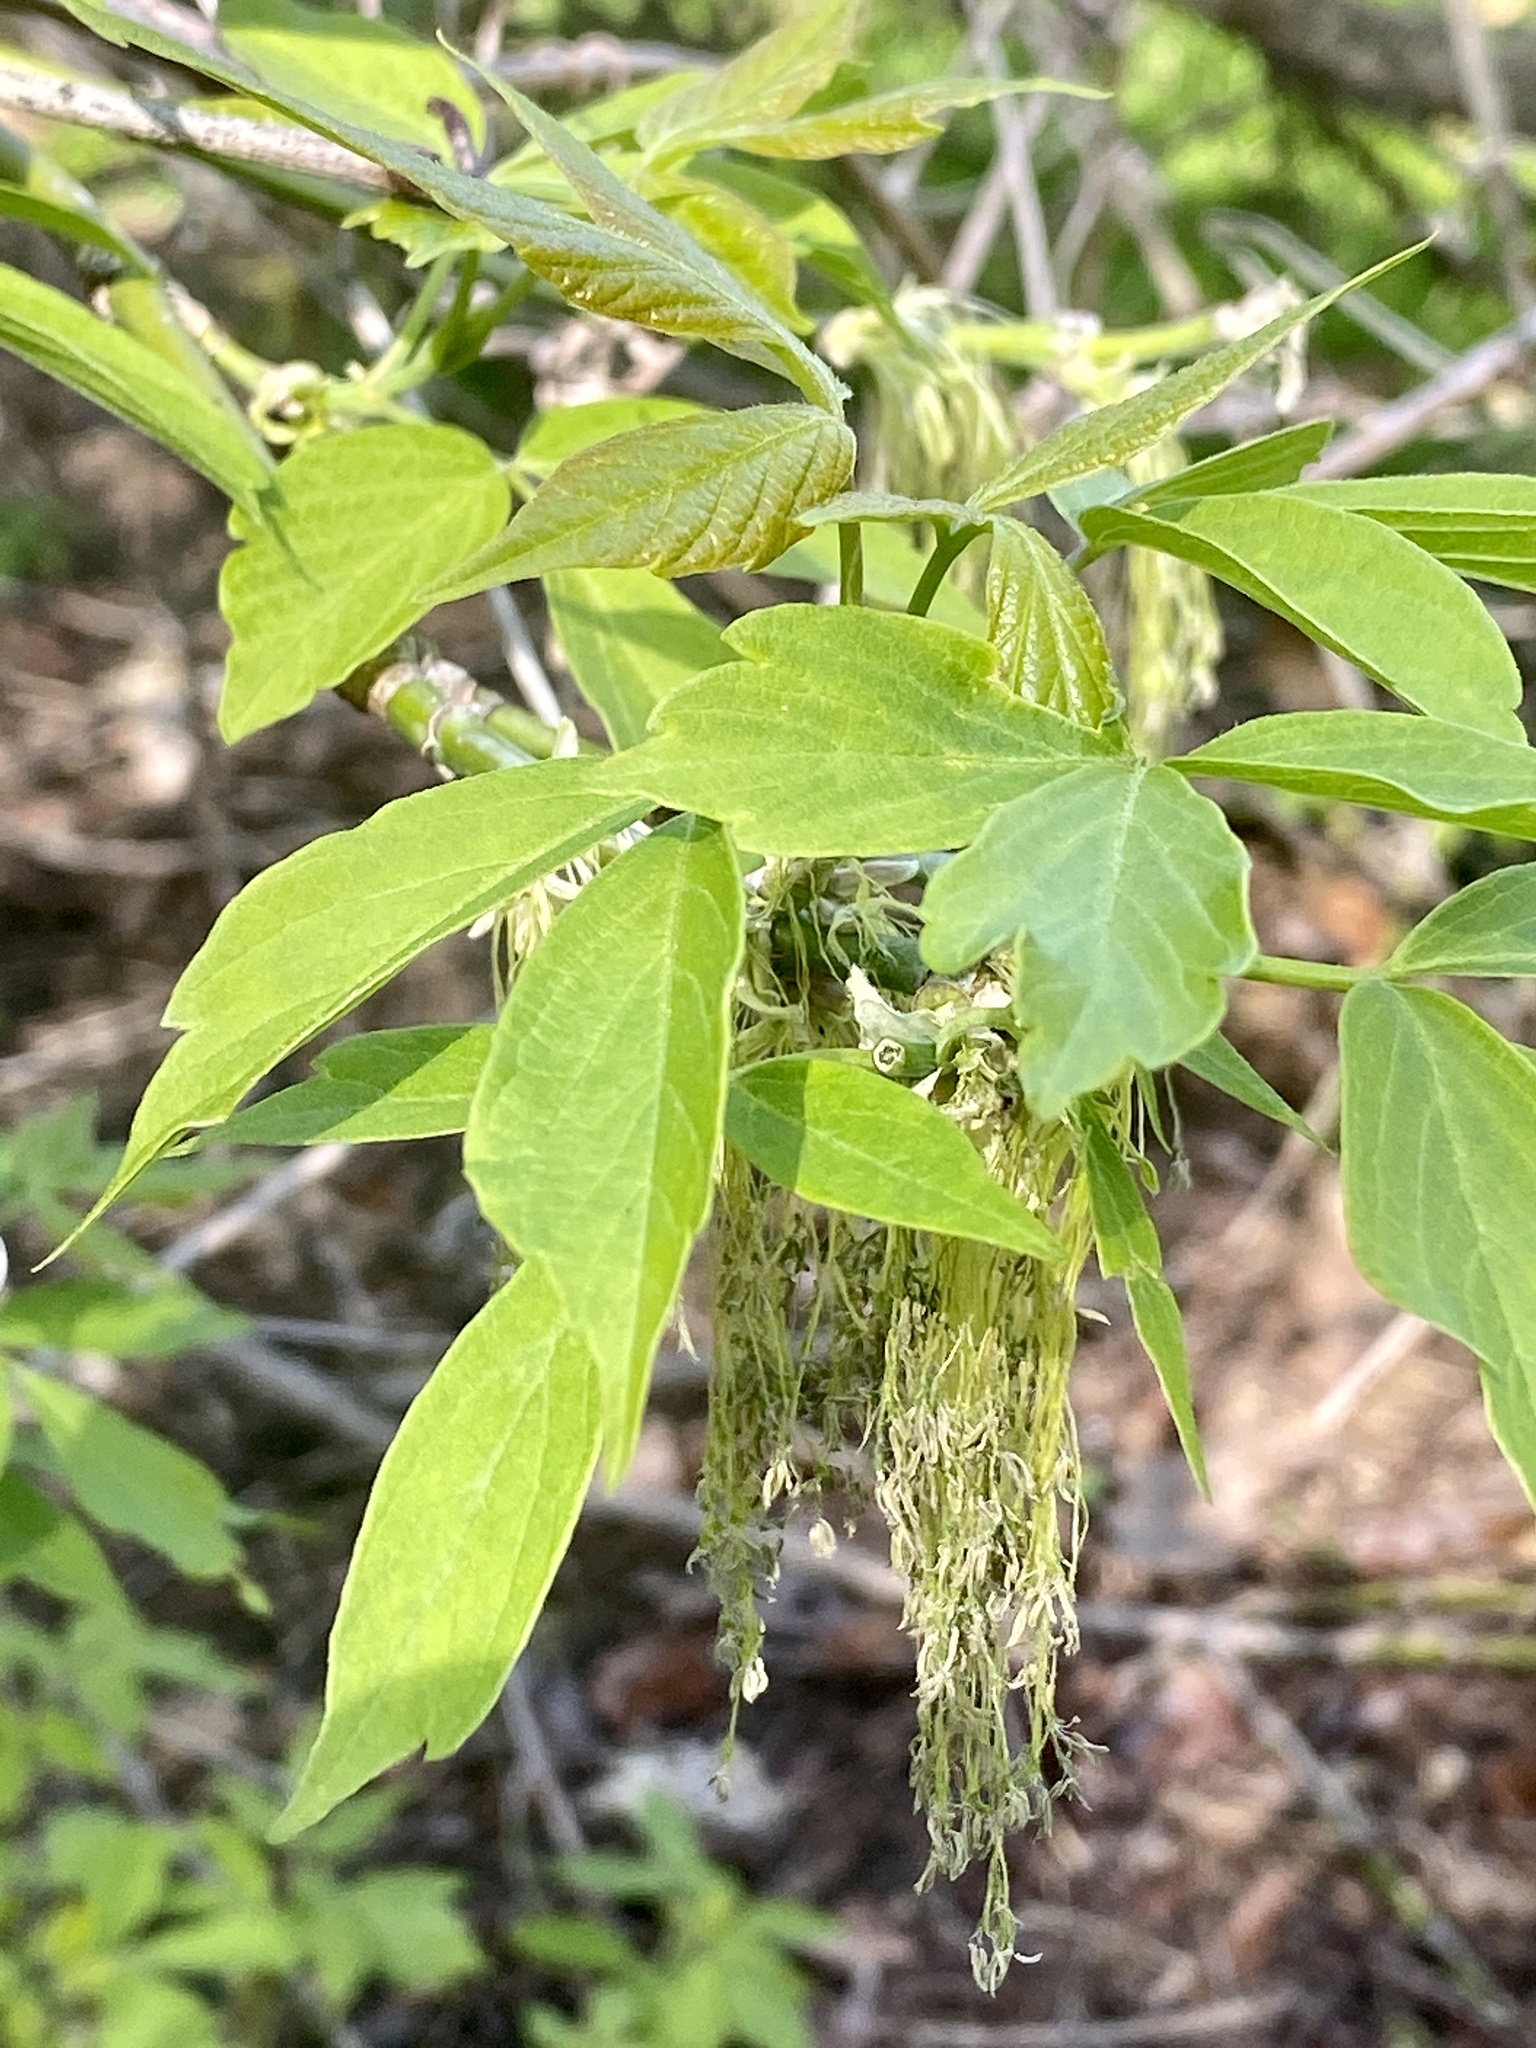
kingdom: Plantae
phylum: Tracheophyta
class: Magnoliopsida
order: Sapindales
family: Sapindaceae
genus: Acer
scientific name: Acer negundo
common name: Ashleaf maple
